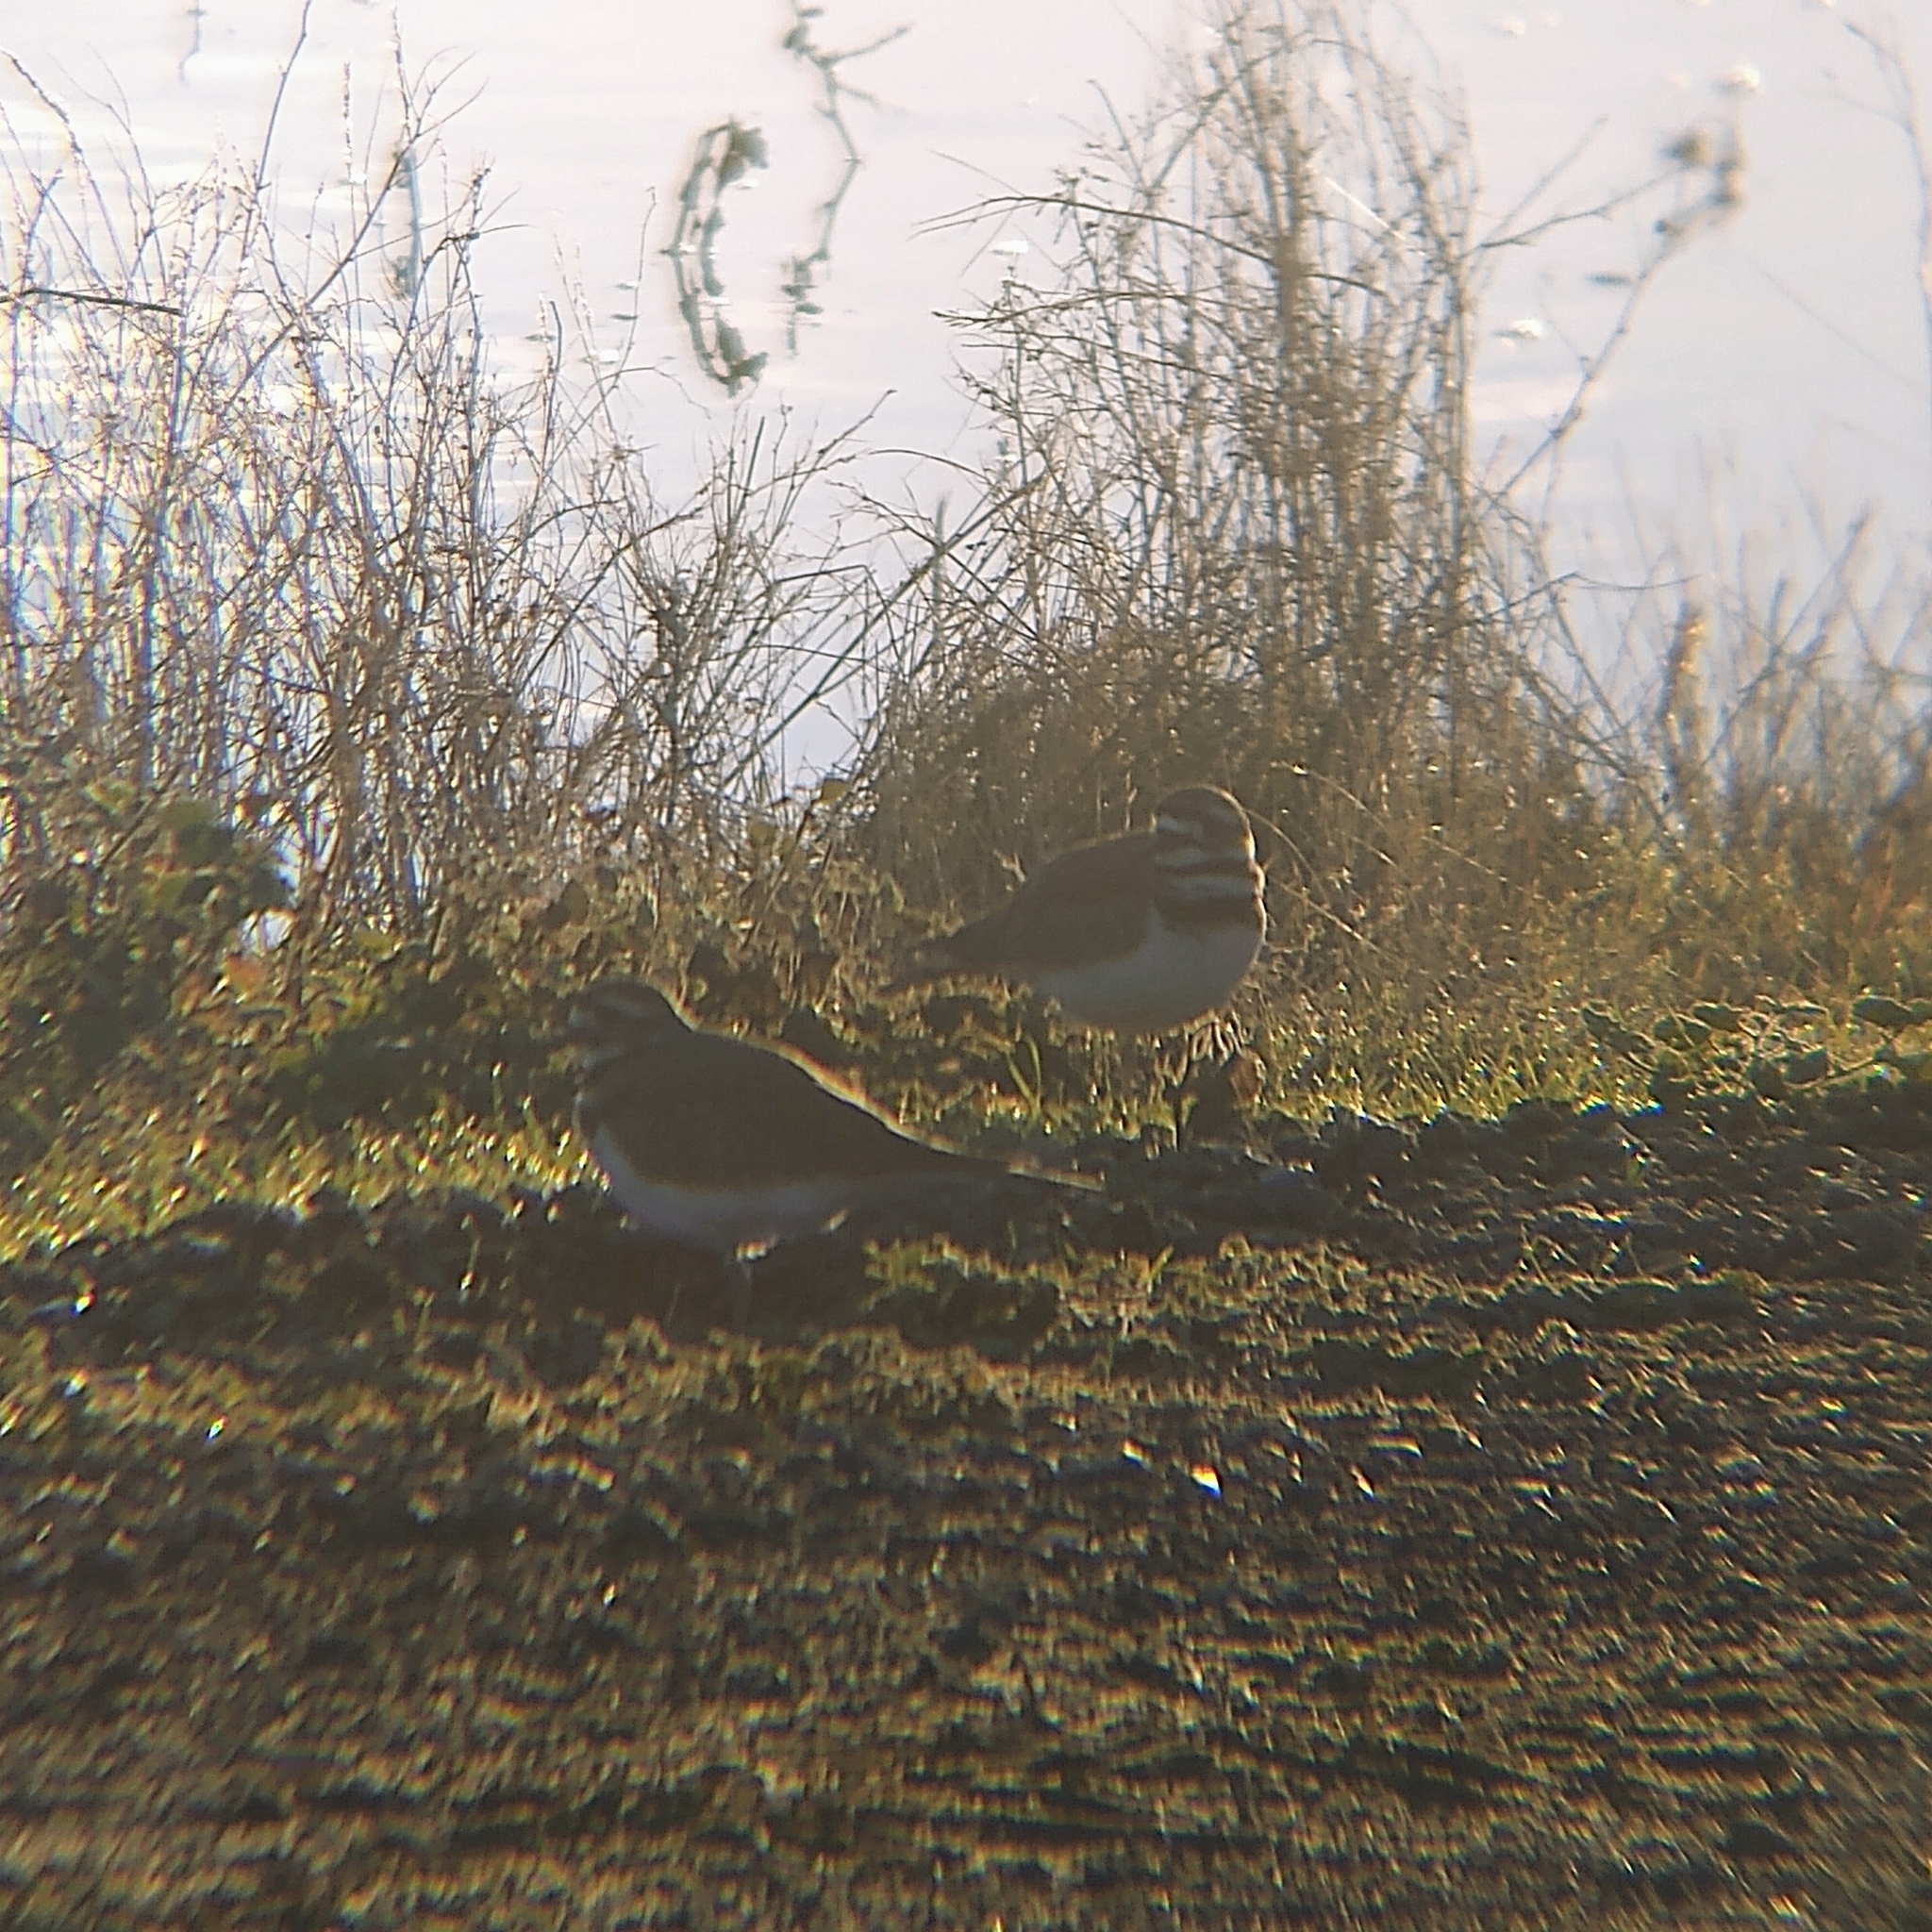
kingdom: Animalia
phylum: Chordata
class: Aves
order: Charadriiformes
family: Charadriidae
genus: Charadrius
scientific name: Charadrius vociferus
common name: Killdeer
